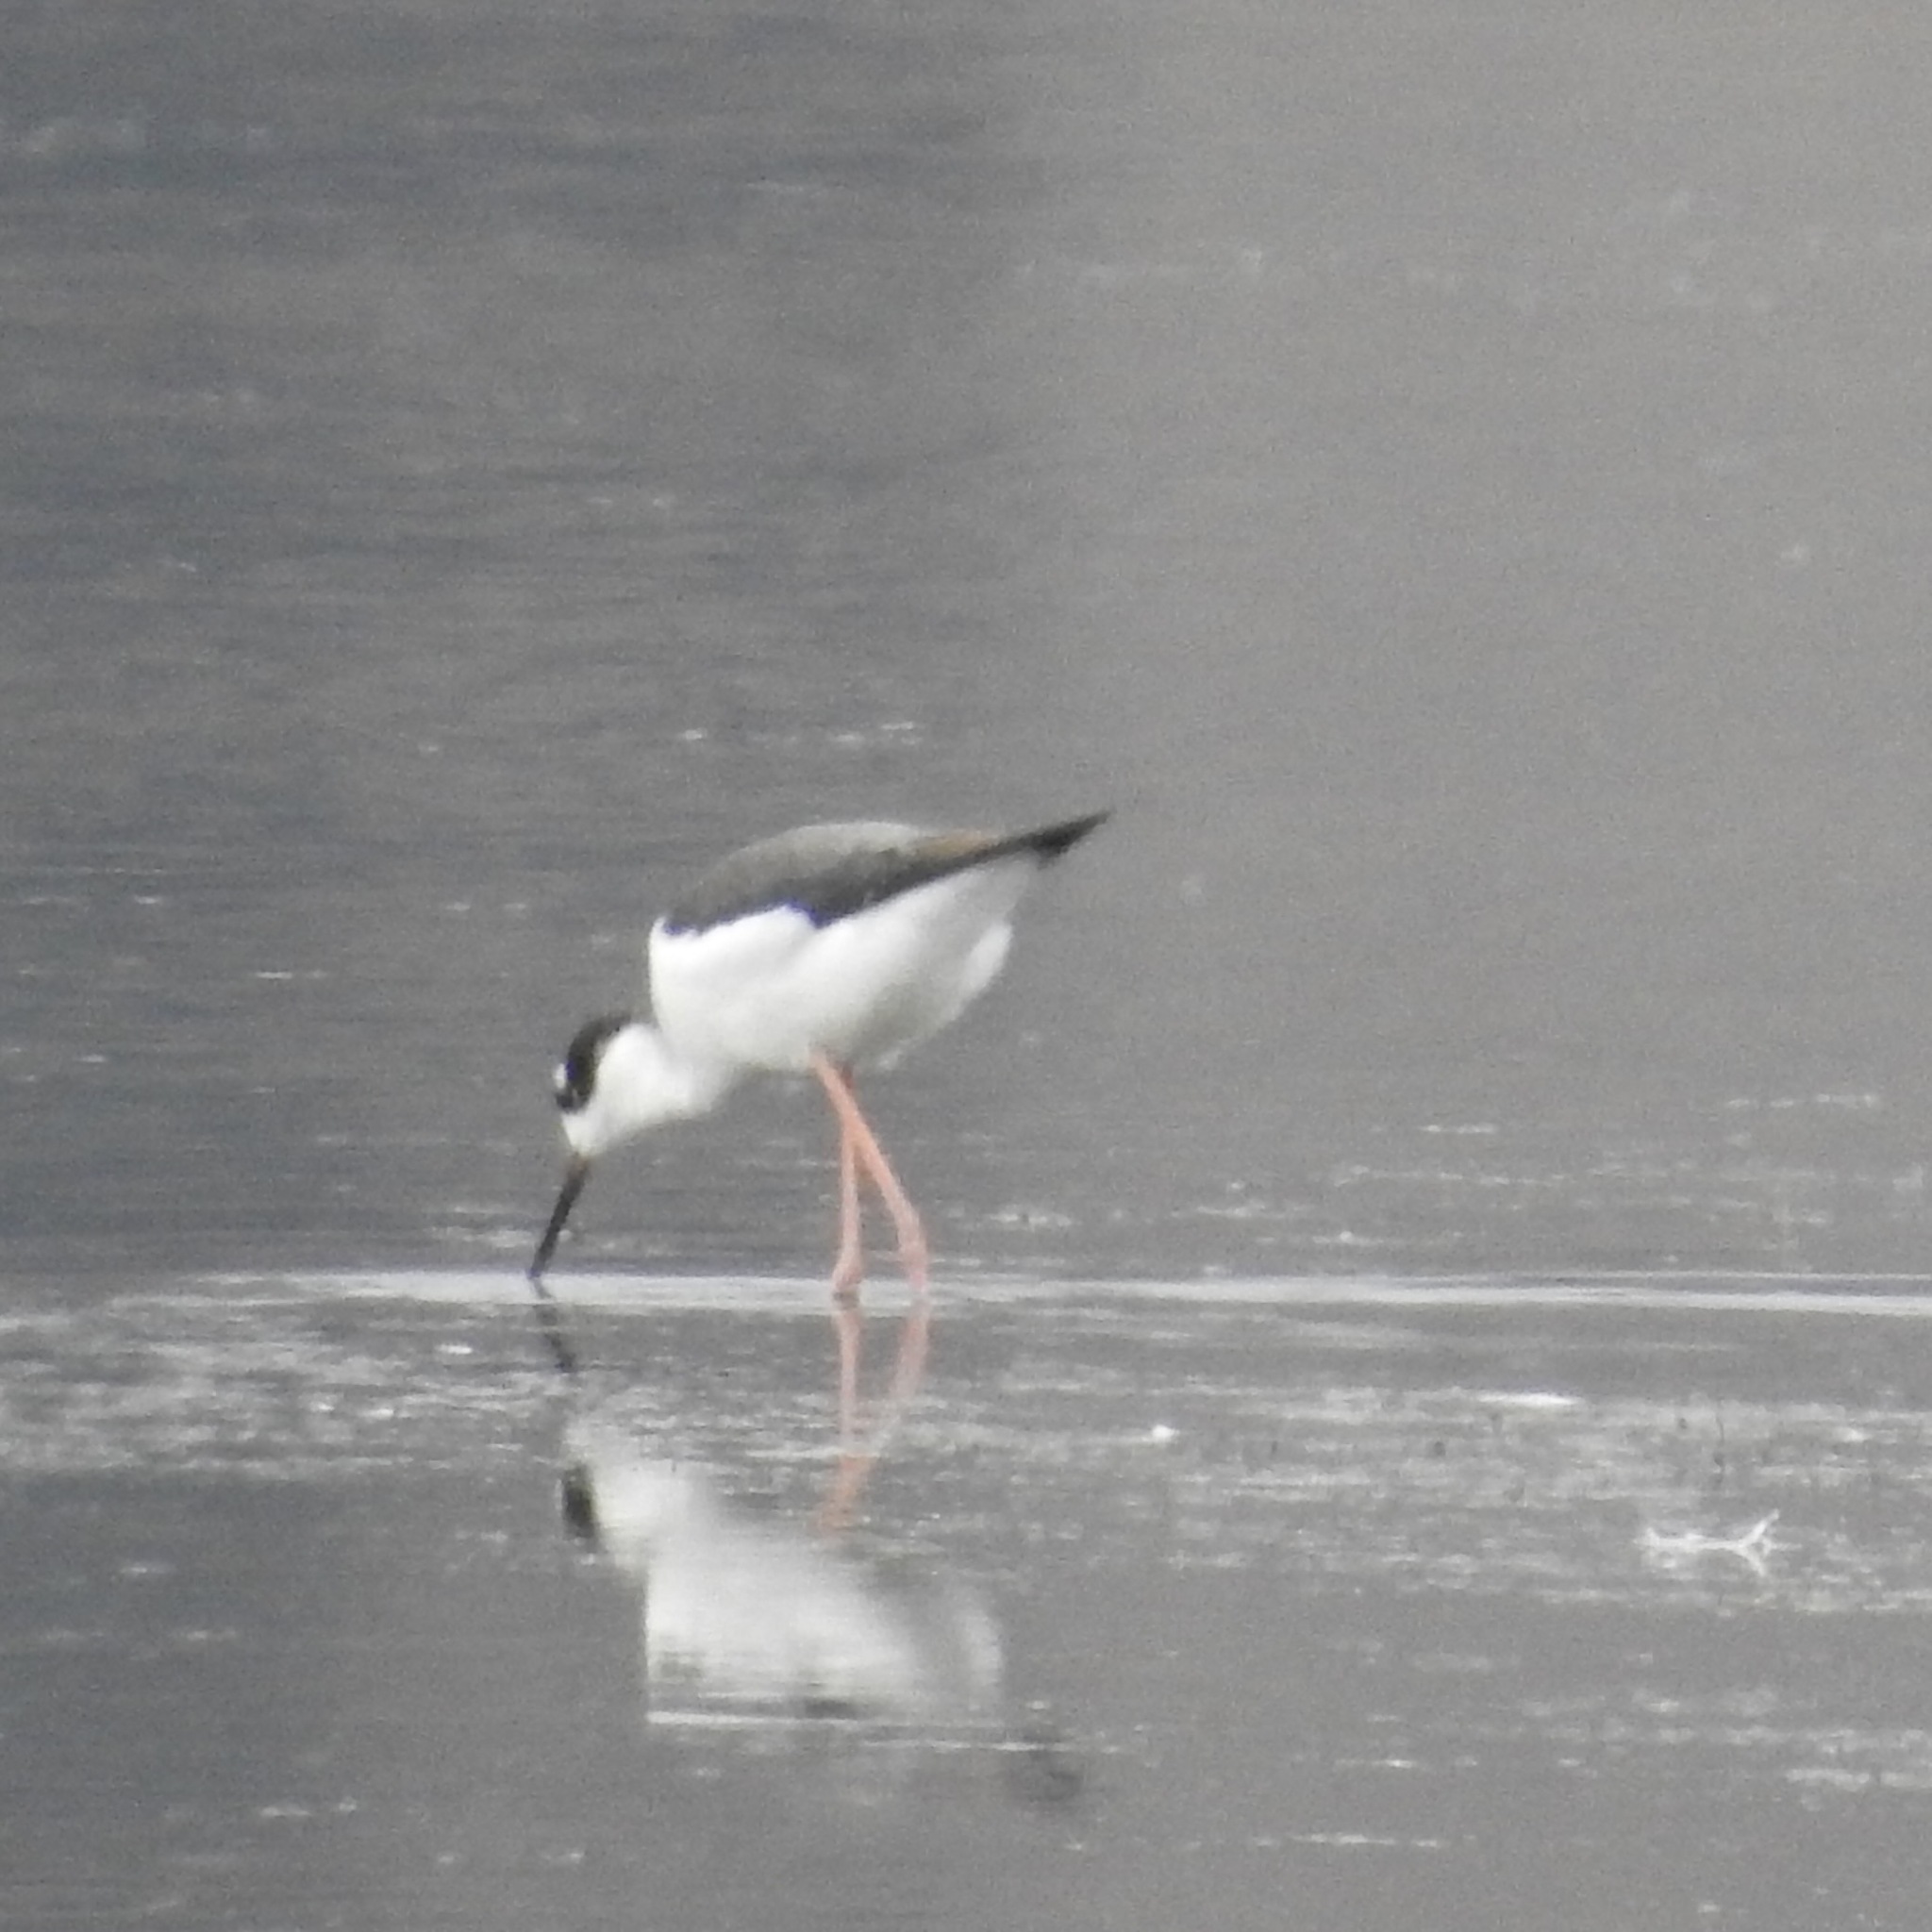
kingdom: Animalia
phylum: Chordata
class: Aves
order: Charadriiformes
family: Recurvirostridae
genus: Himantopus
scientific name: Himantopus mexicanus
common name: Black-necked stilt
